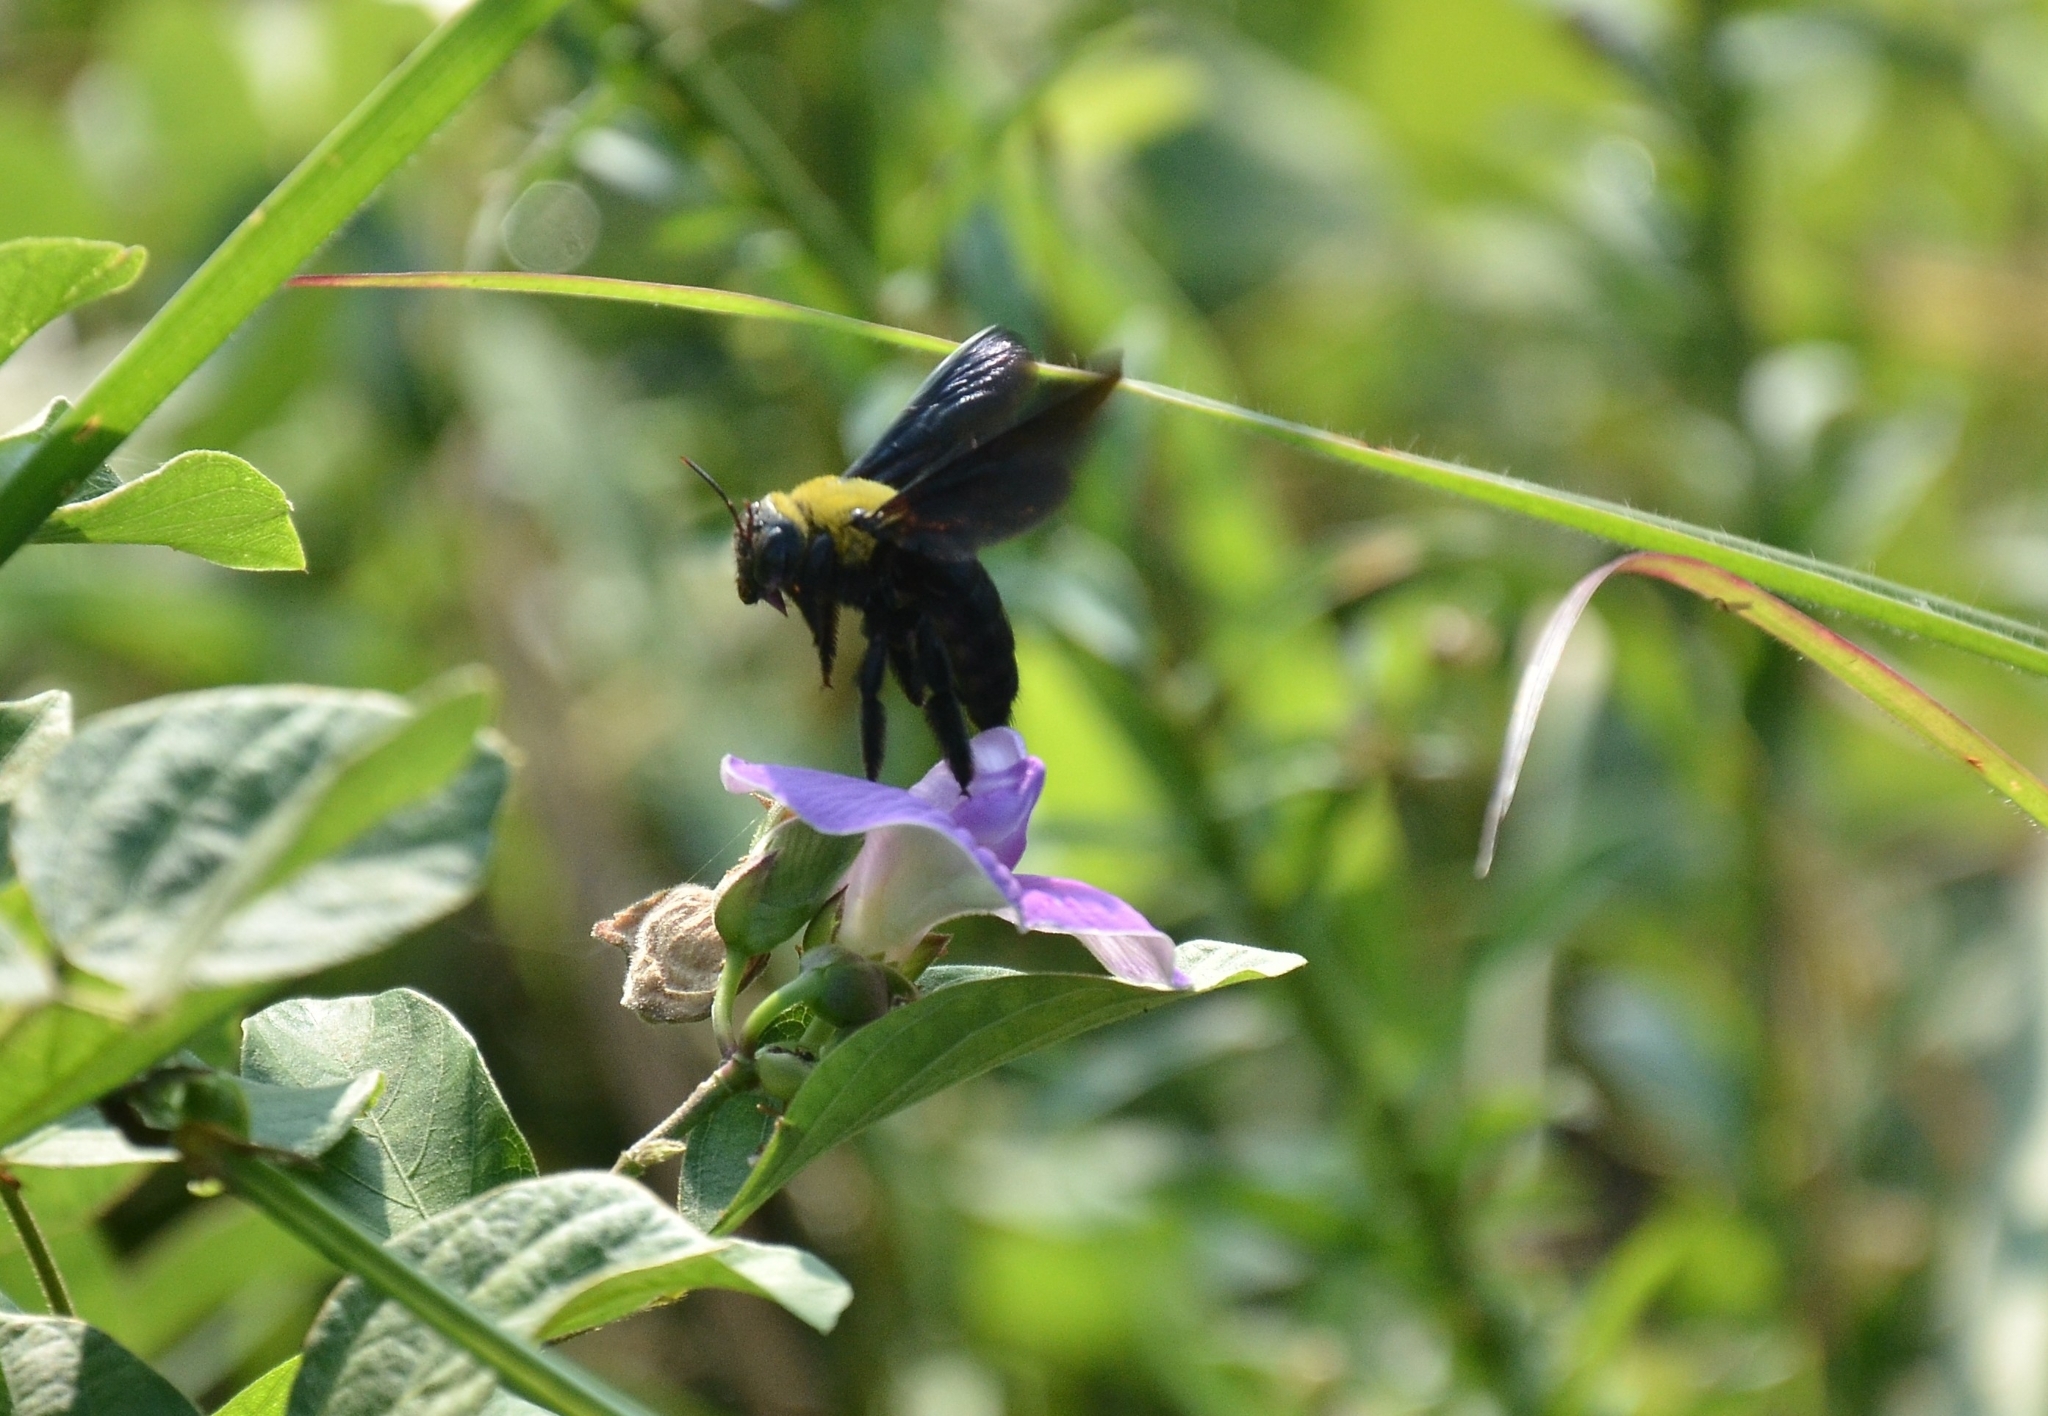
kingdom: Animalia
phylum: Arthropoda
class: Insecta
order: Hymenoptera
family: Apidae
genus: Xylocopa
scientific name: Xylocopa ruficornis
